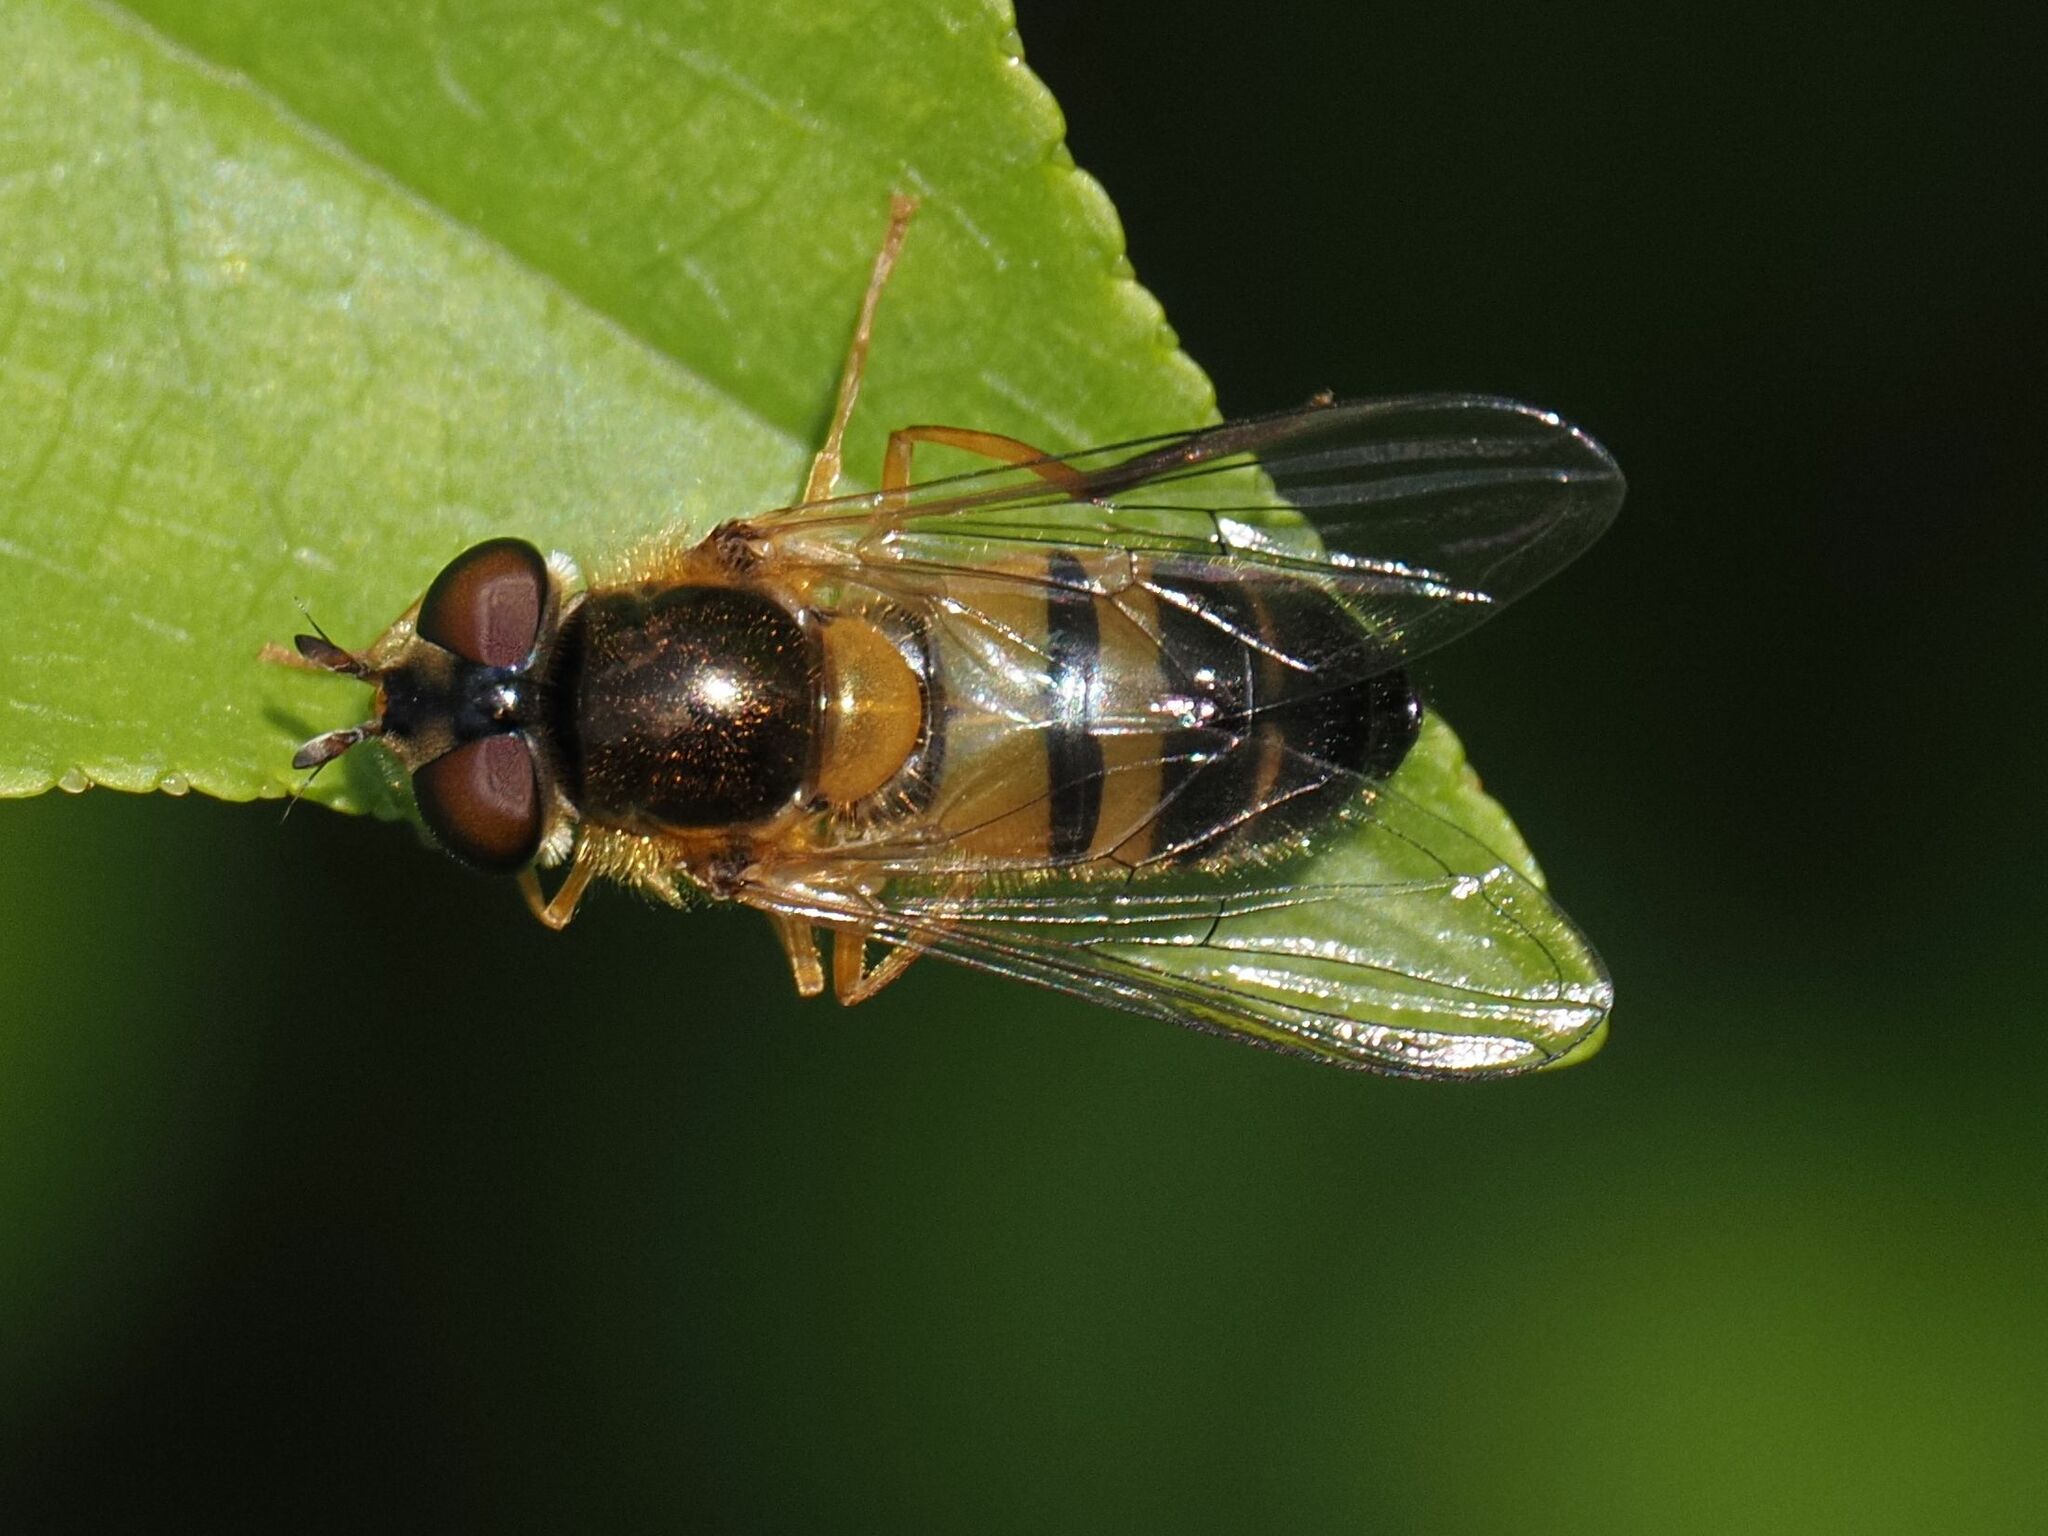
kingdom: Animalia
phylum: Arthropoda
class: Insecta
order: Diptera
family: Syrphidae
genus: Epistrophe
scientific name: Epistrophe eligans
